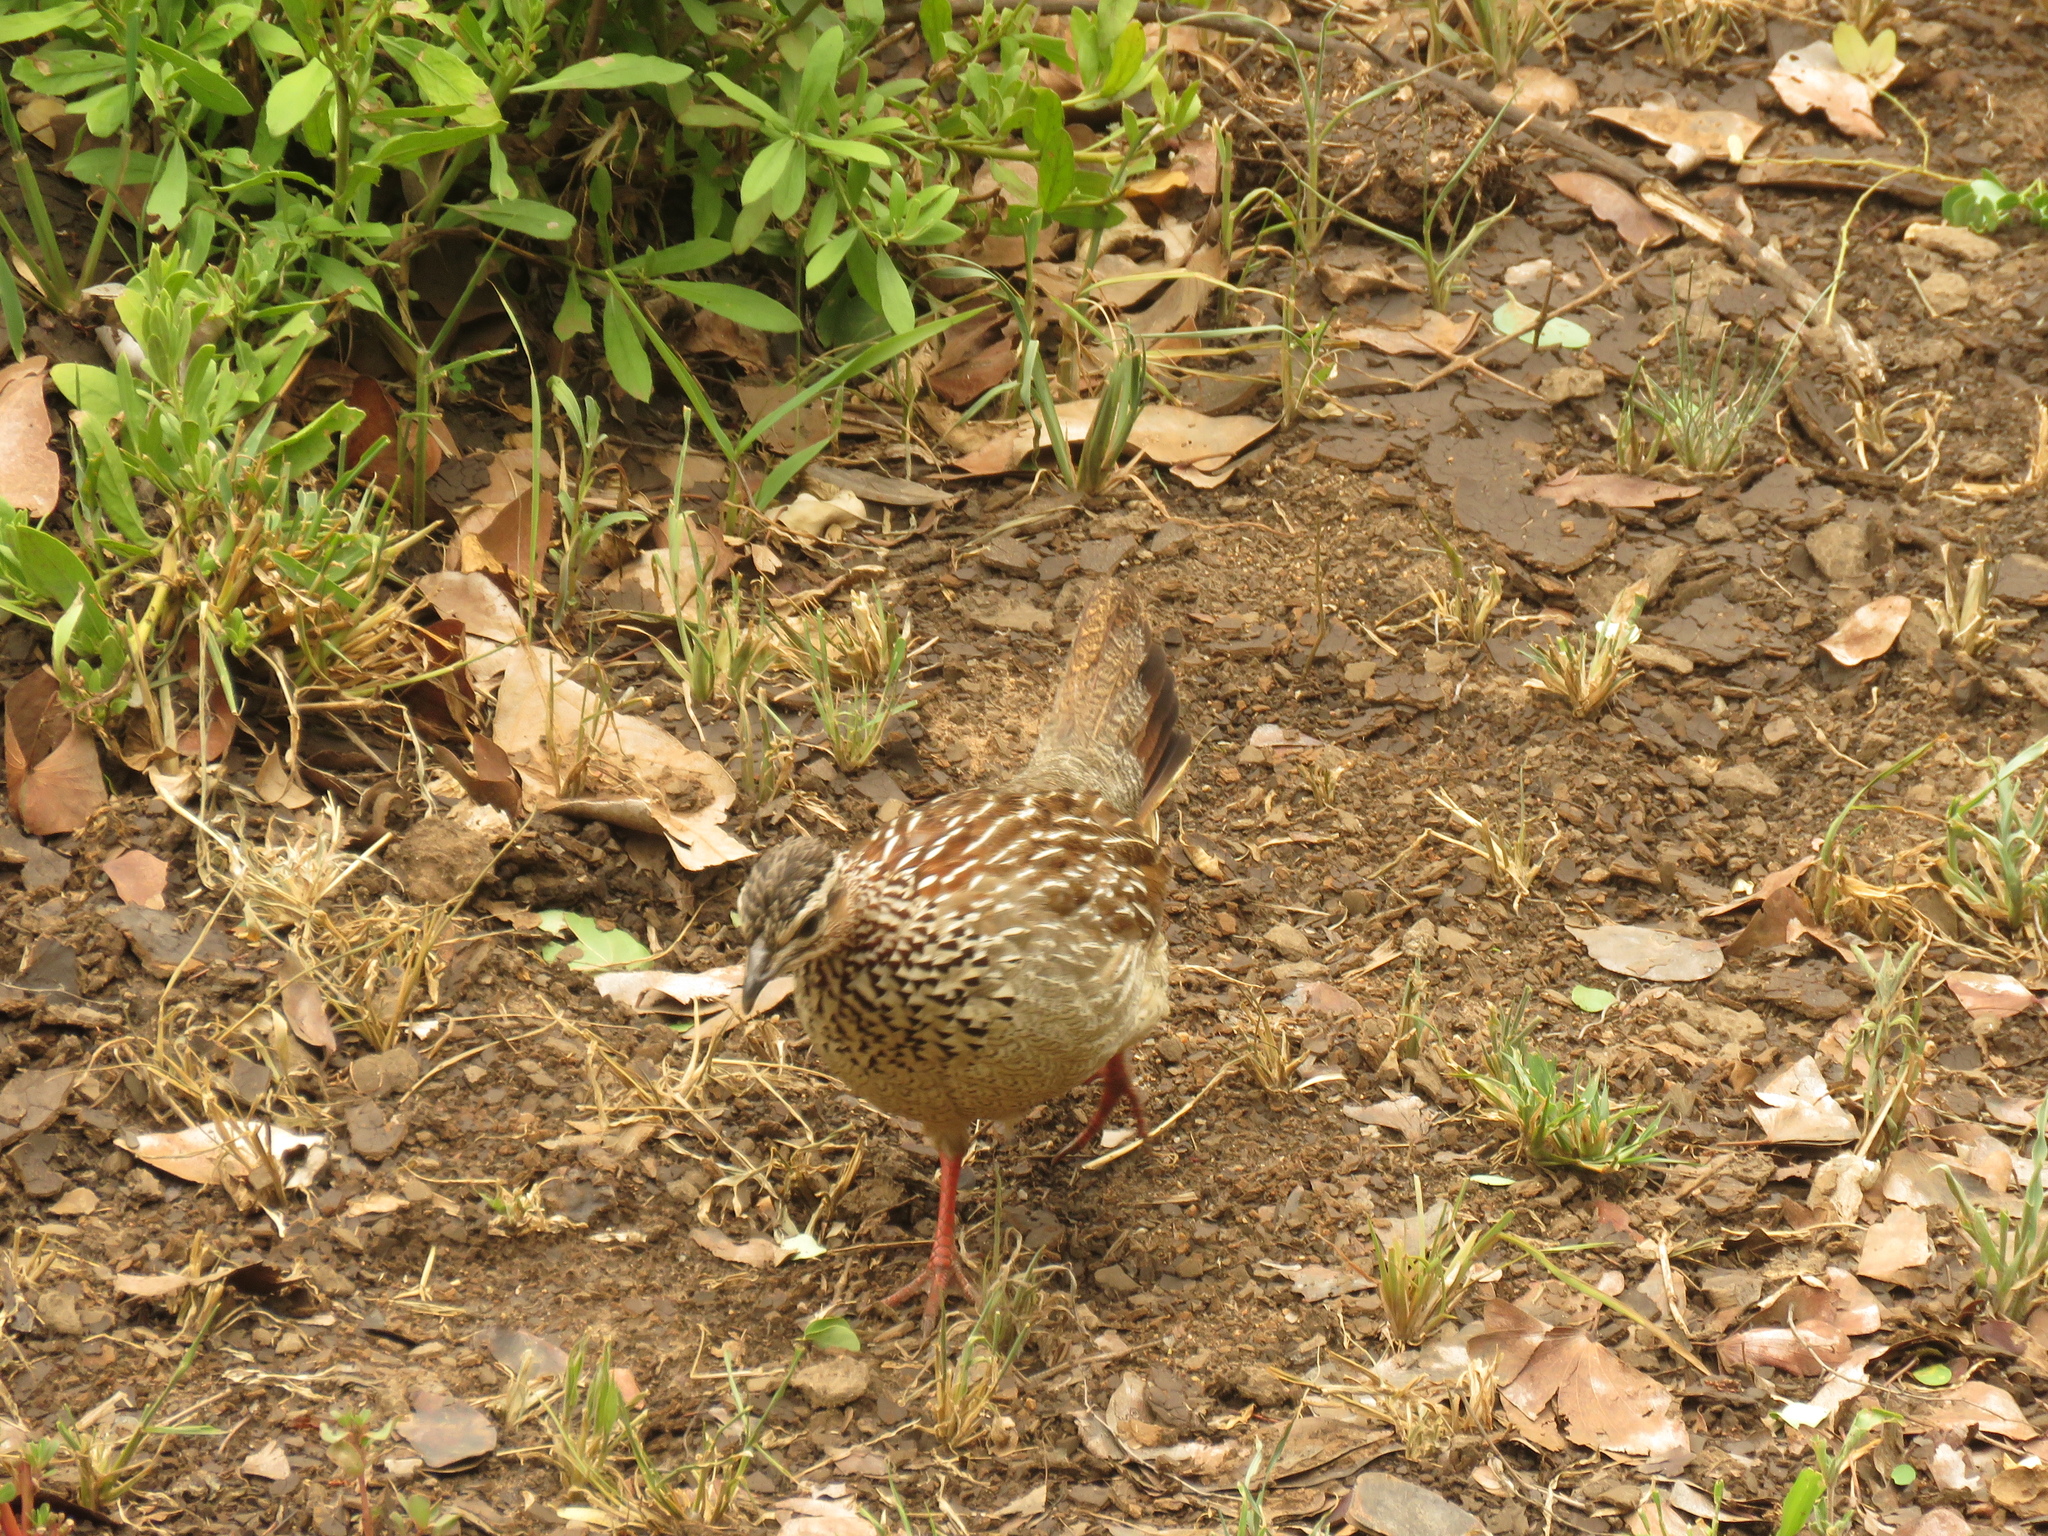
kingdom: Animalia
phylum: Chordata
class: Aves
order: Galliformes
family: Phasianidae
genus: Ortygornis
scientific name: Ortygornis sephaena
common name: Crested francolin
